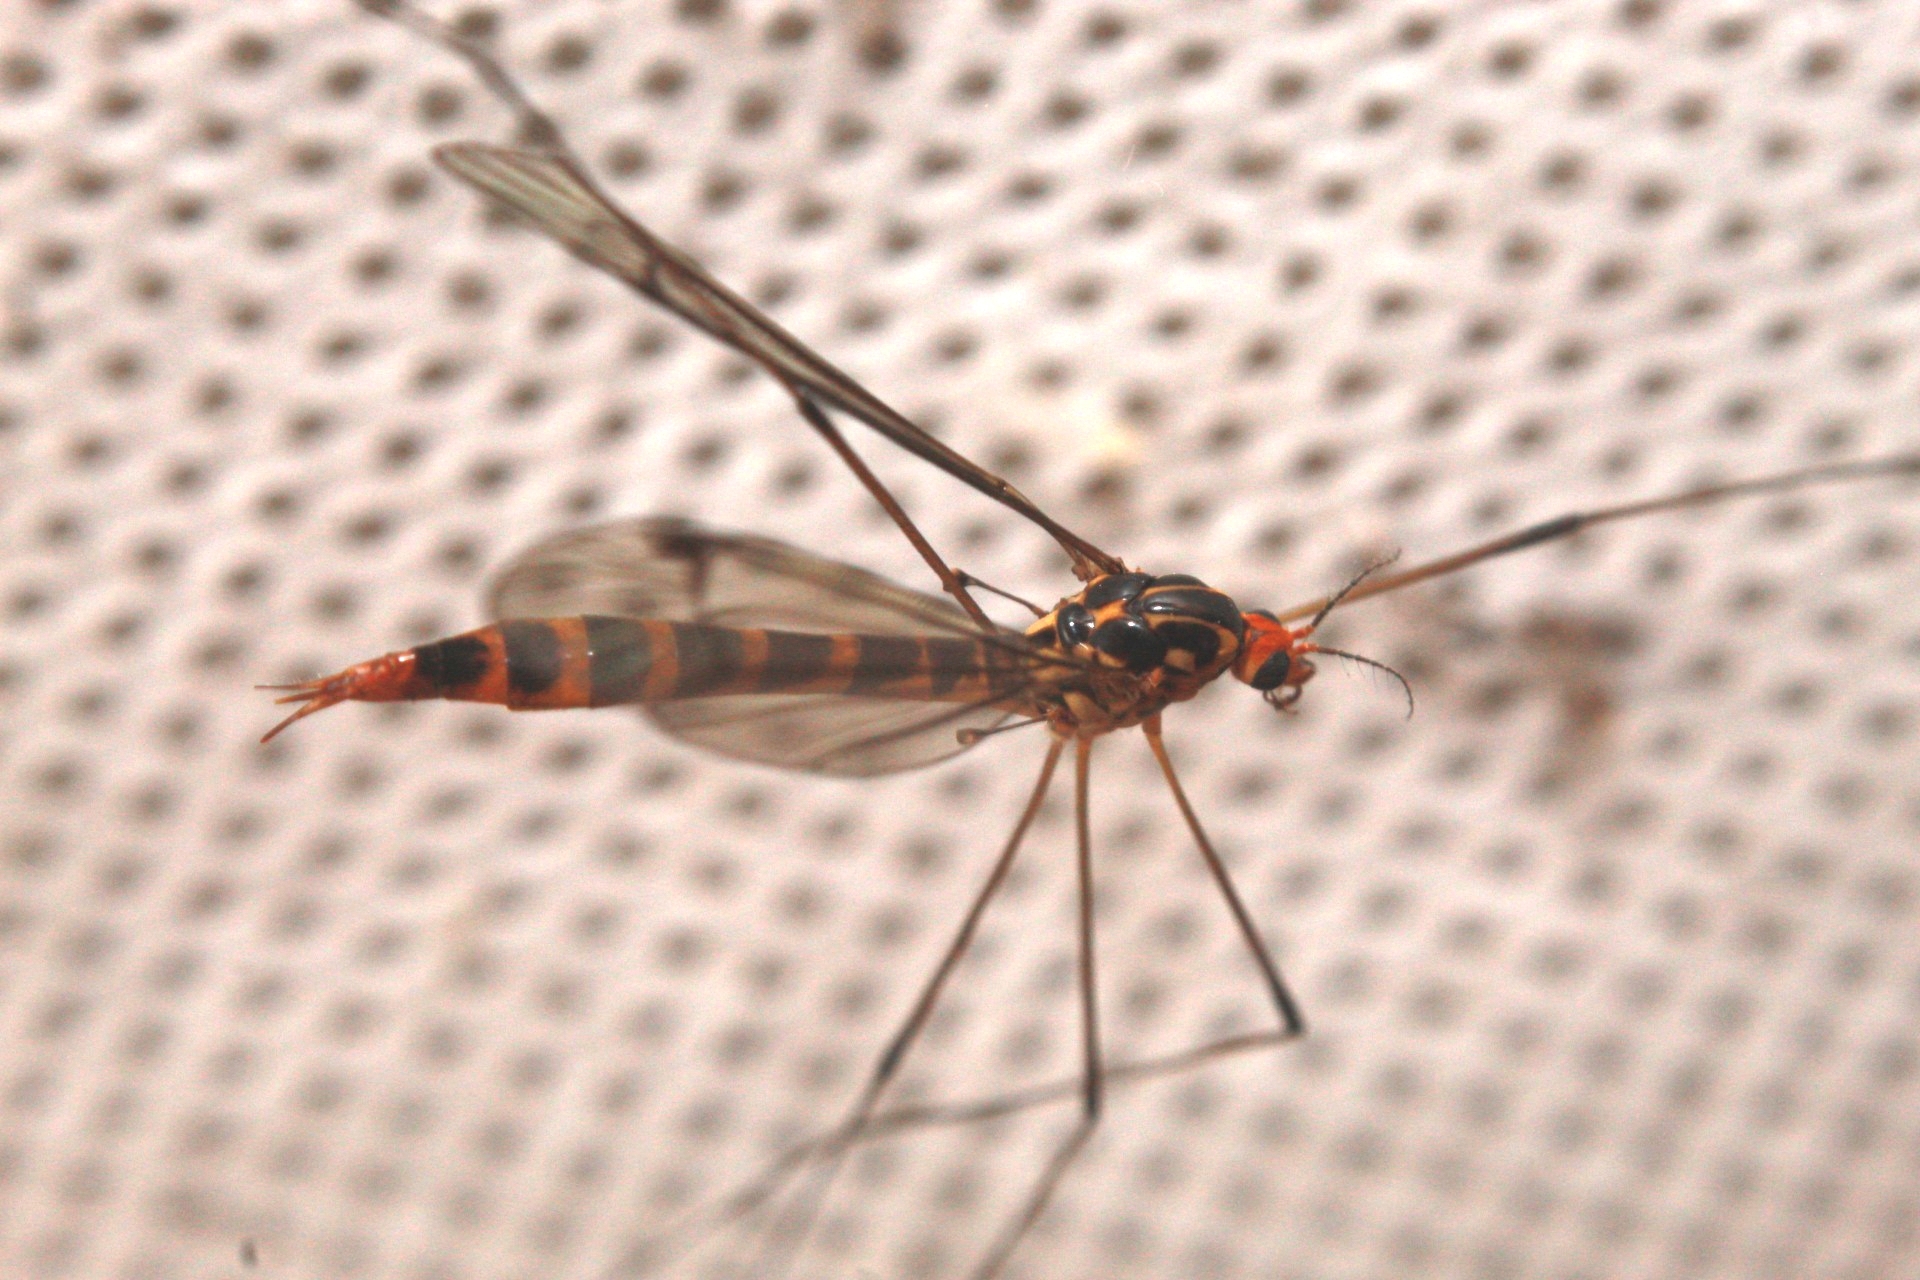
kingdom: Animalia
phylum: Arthropoda
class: Insecta
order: Diptera
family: Tipulidae
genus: Nephrotoma
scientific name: Nephrotoma flavipalpis
